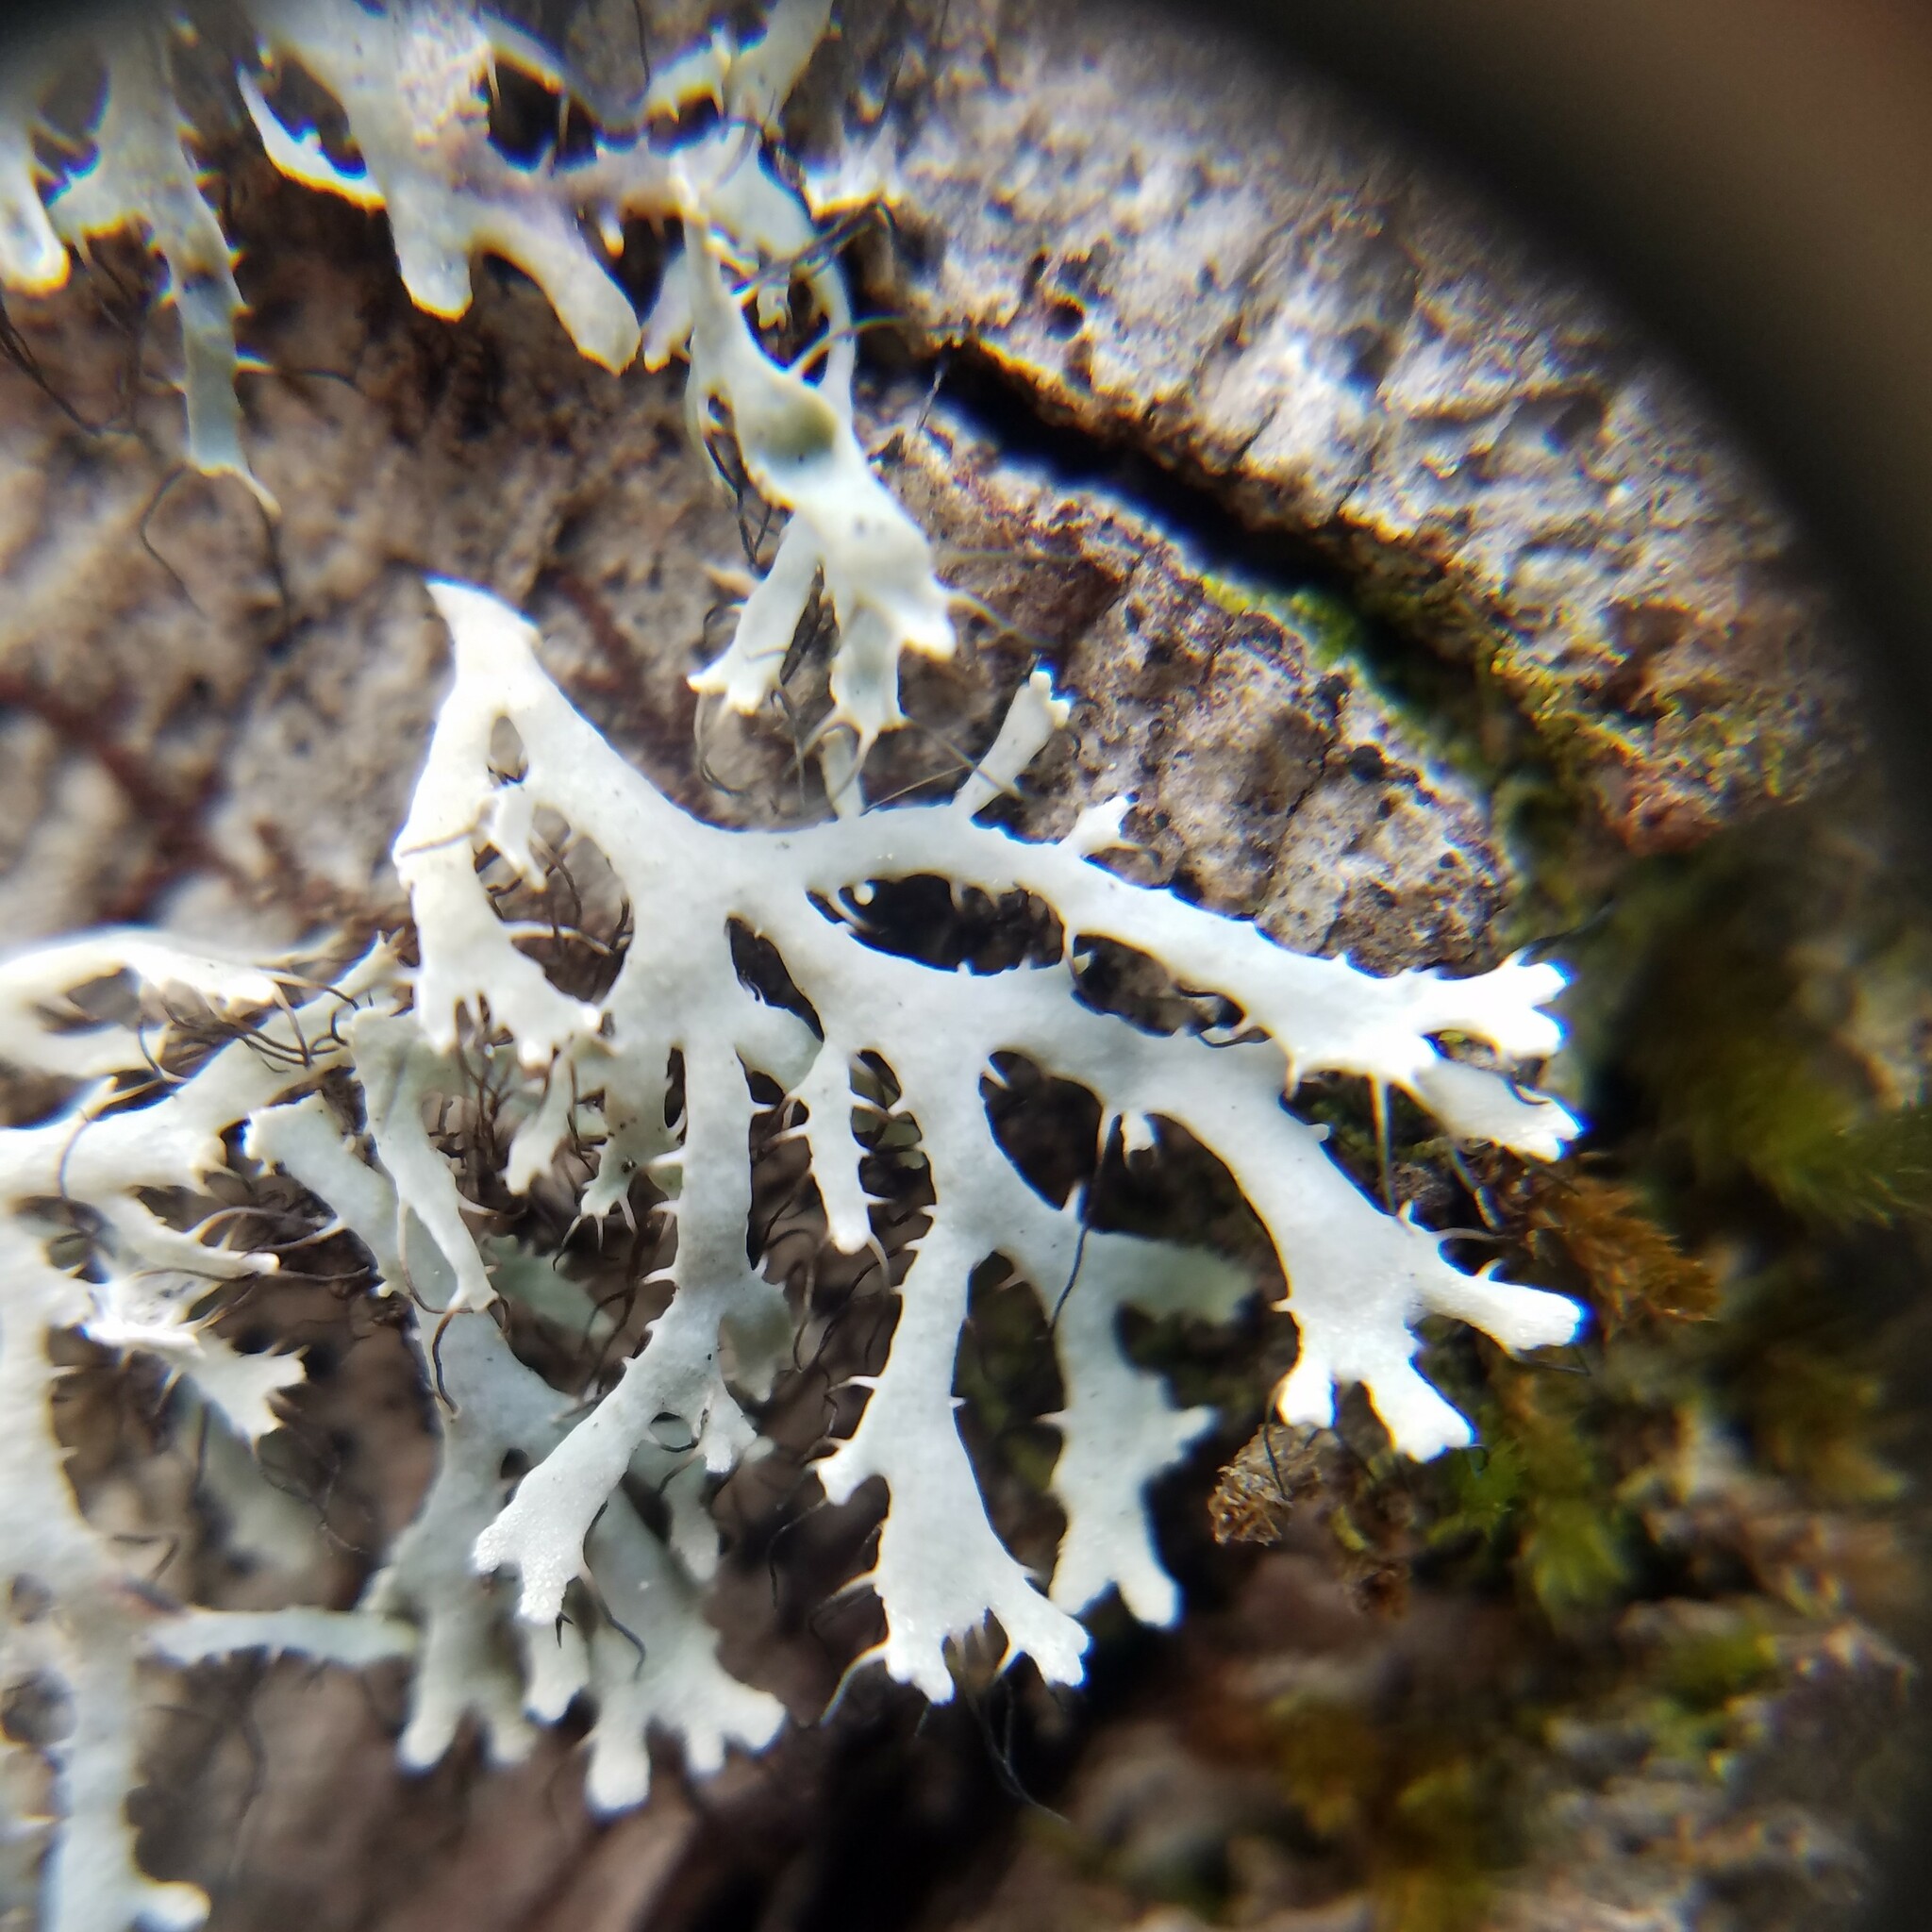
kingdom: Fungi
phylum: Ascomycota
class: Lecanoromycetes
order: Caliciales
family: Physciaceae
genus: Leucodermia
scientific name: Leucodermia appalachensis
